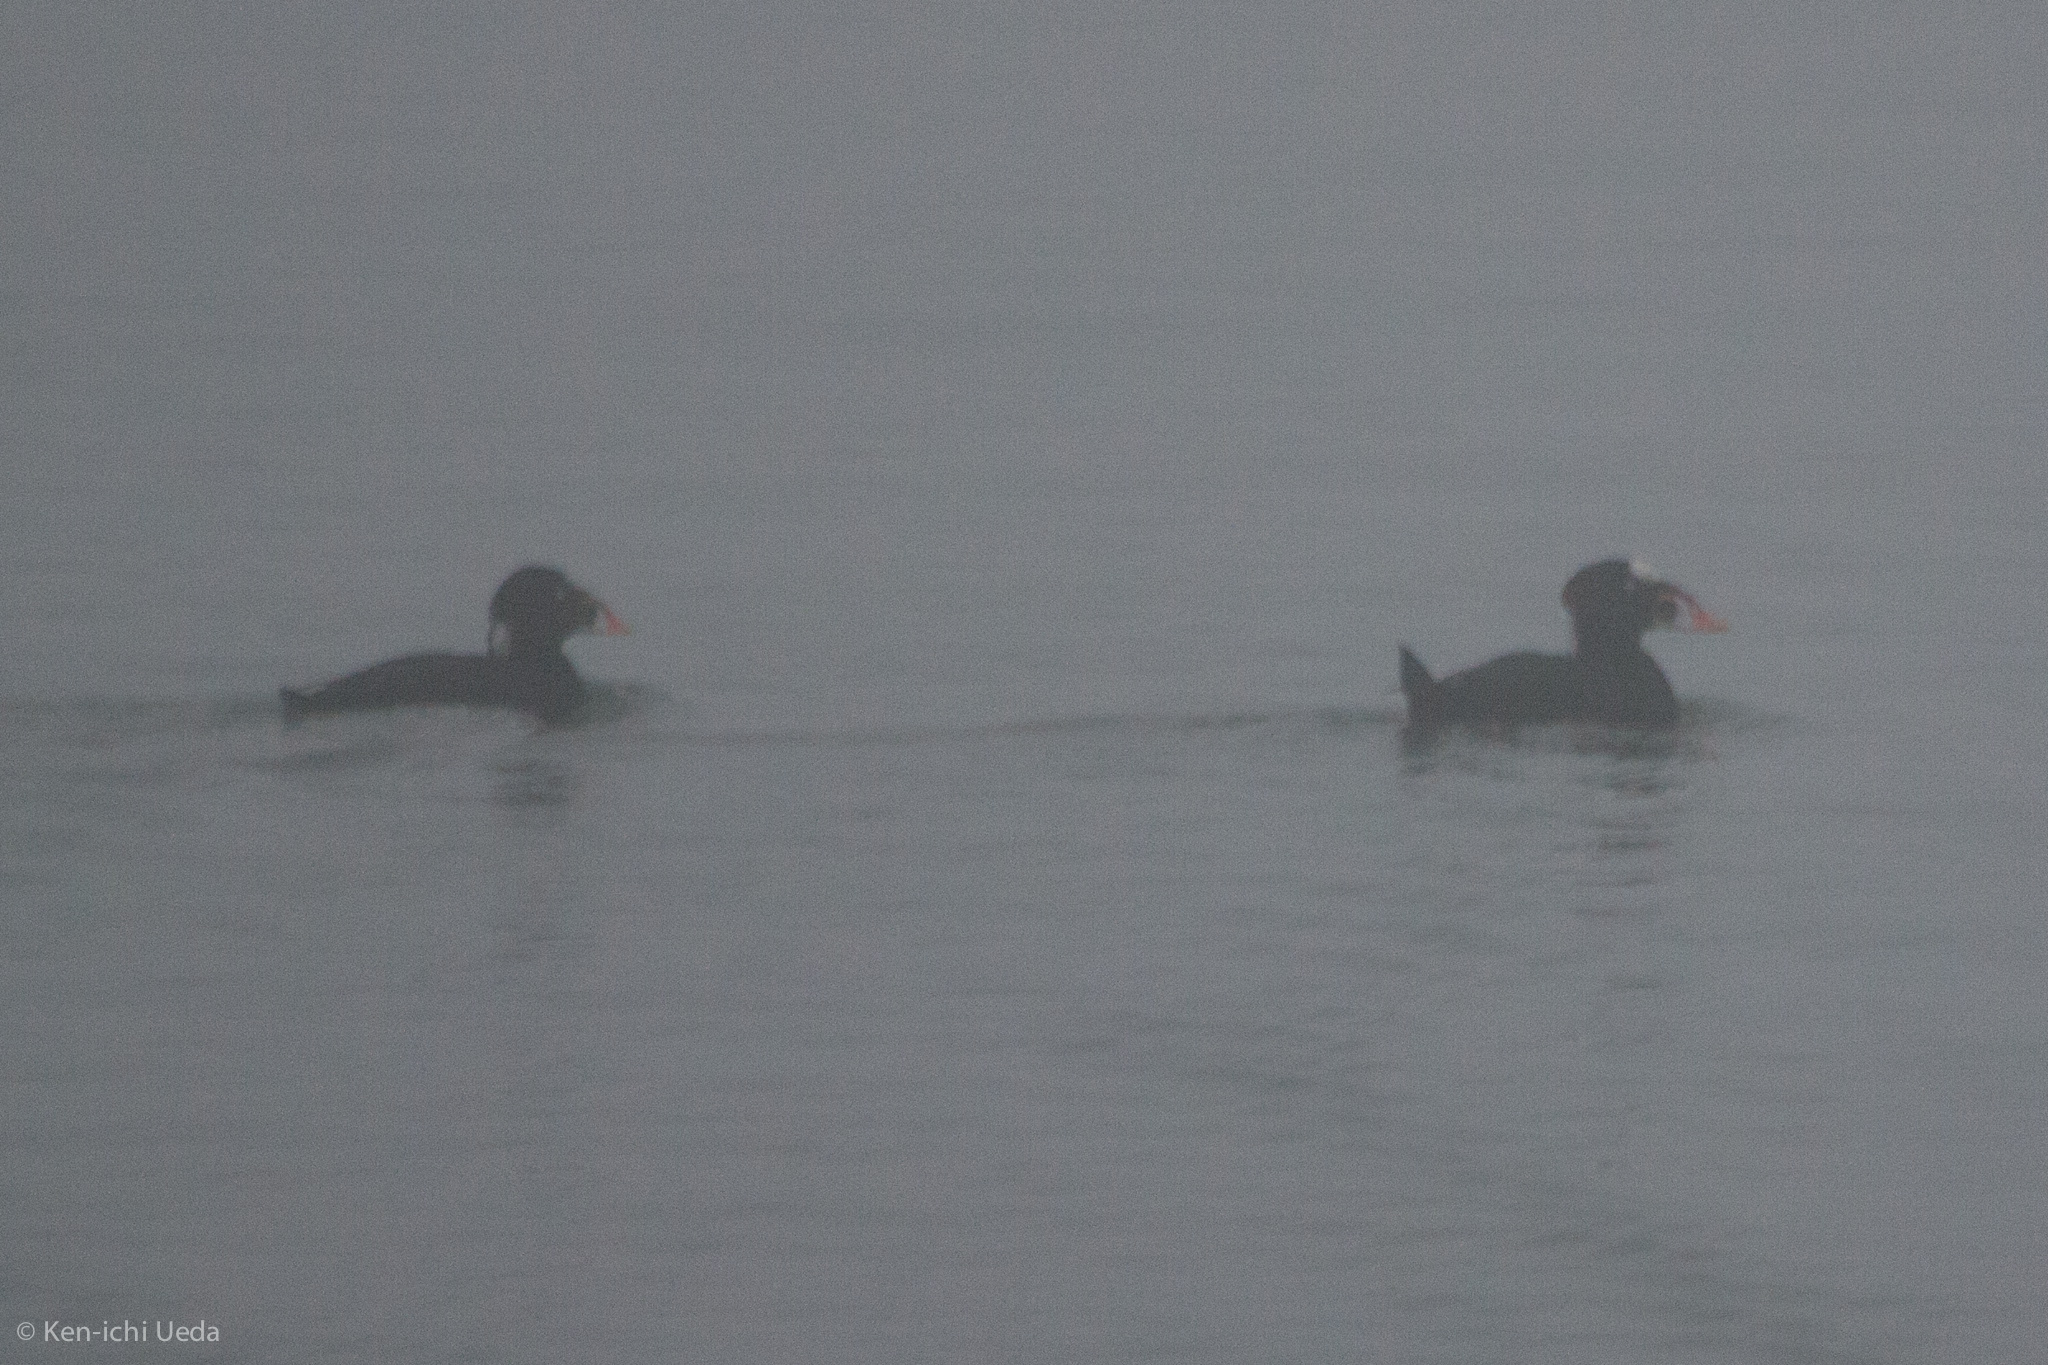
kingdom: Animalia
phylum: Chordata
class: Aves
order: Anseriformes
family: Anatidae
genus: Melanitta
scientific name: Melanitta perspicillata
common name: Surf scoter
